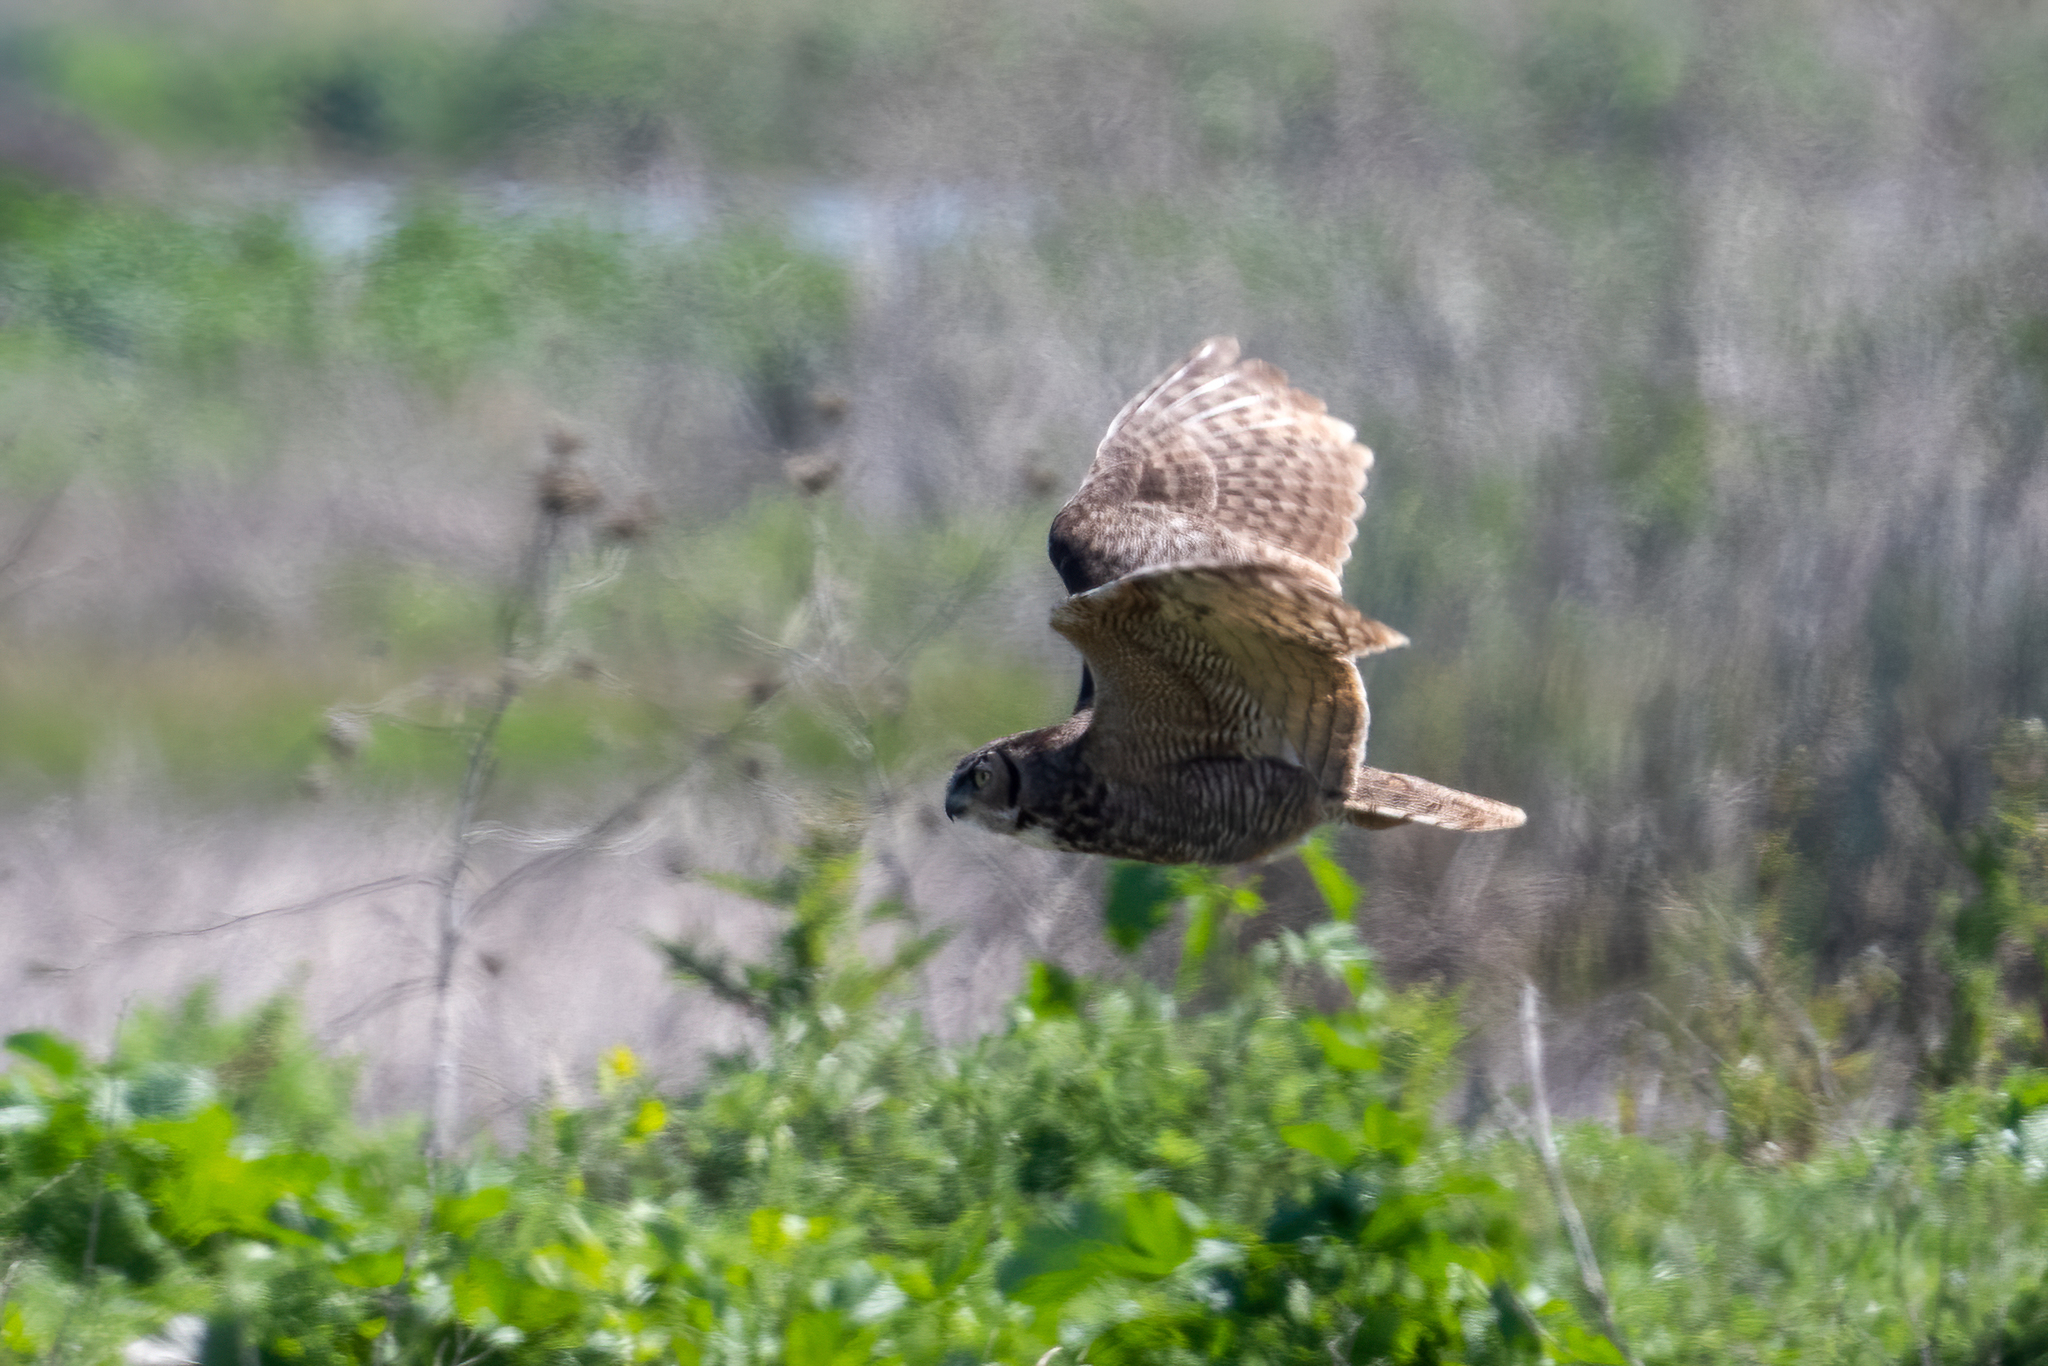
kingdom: Animalia
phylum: Chordata
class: Aves
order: Strigiformes
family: Strigidae
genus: Bubo
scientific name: Bubo virginianus
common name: Great horned owl
